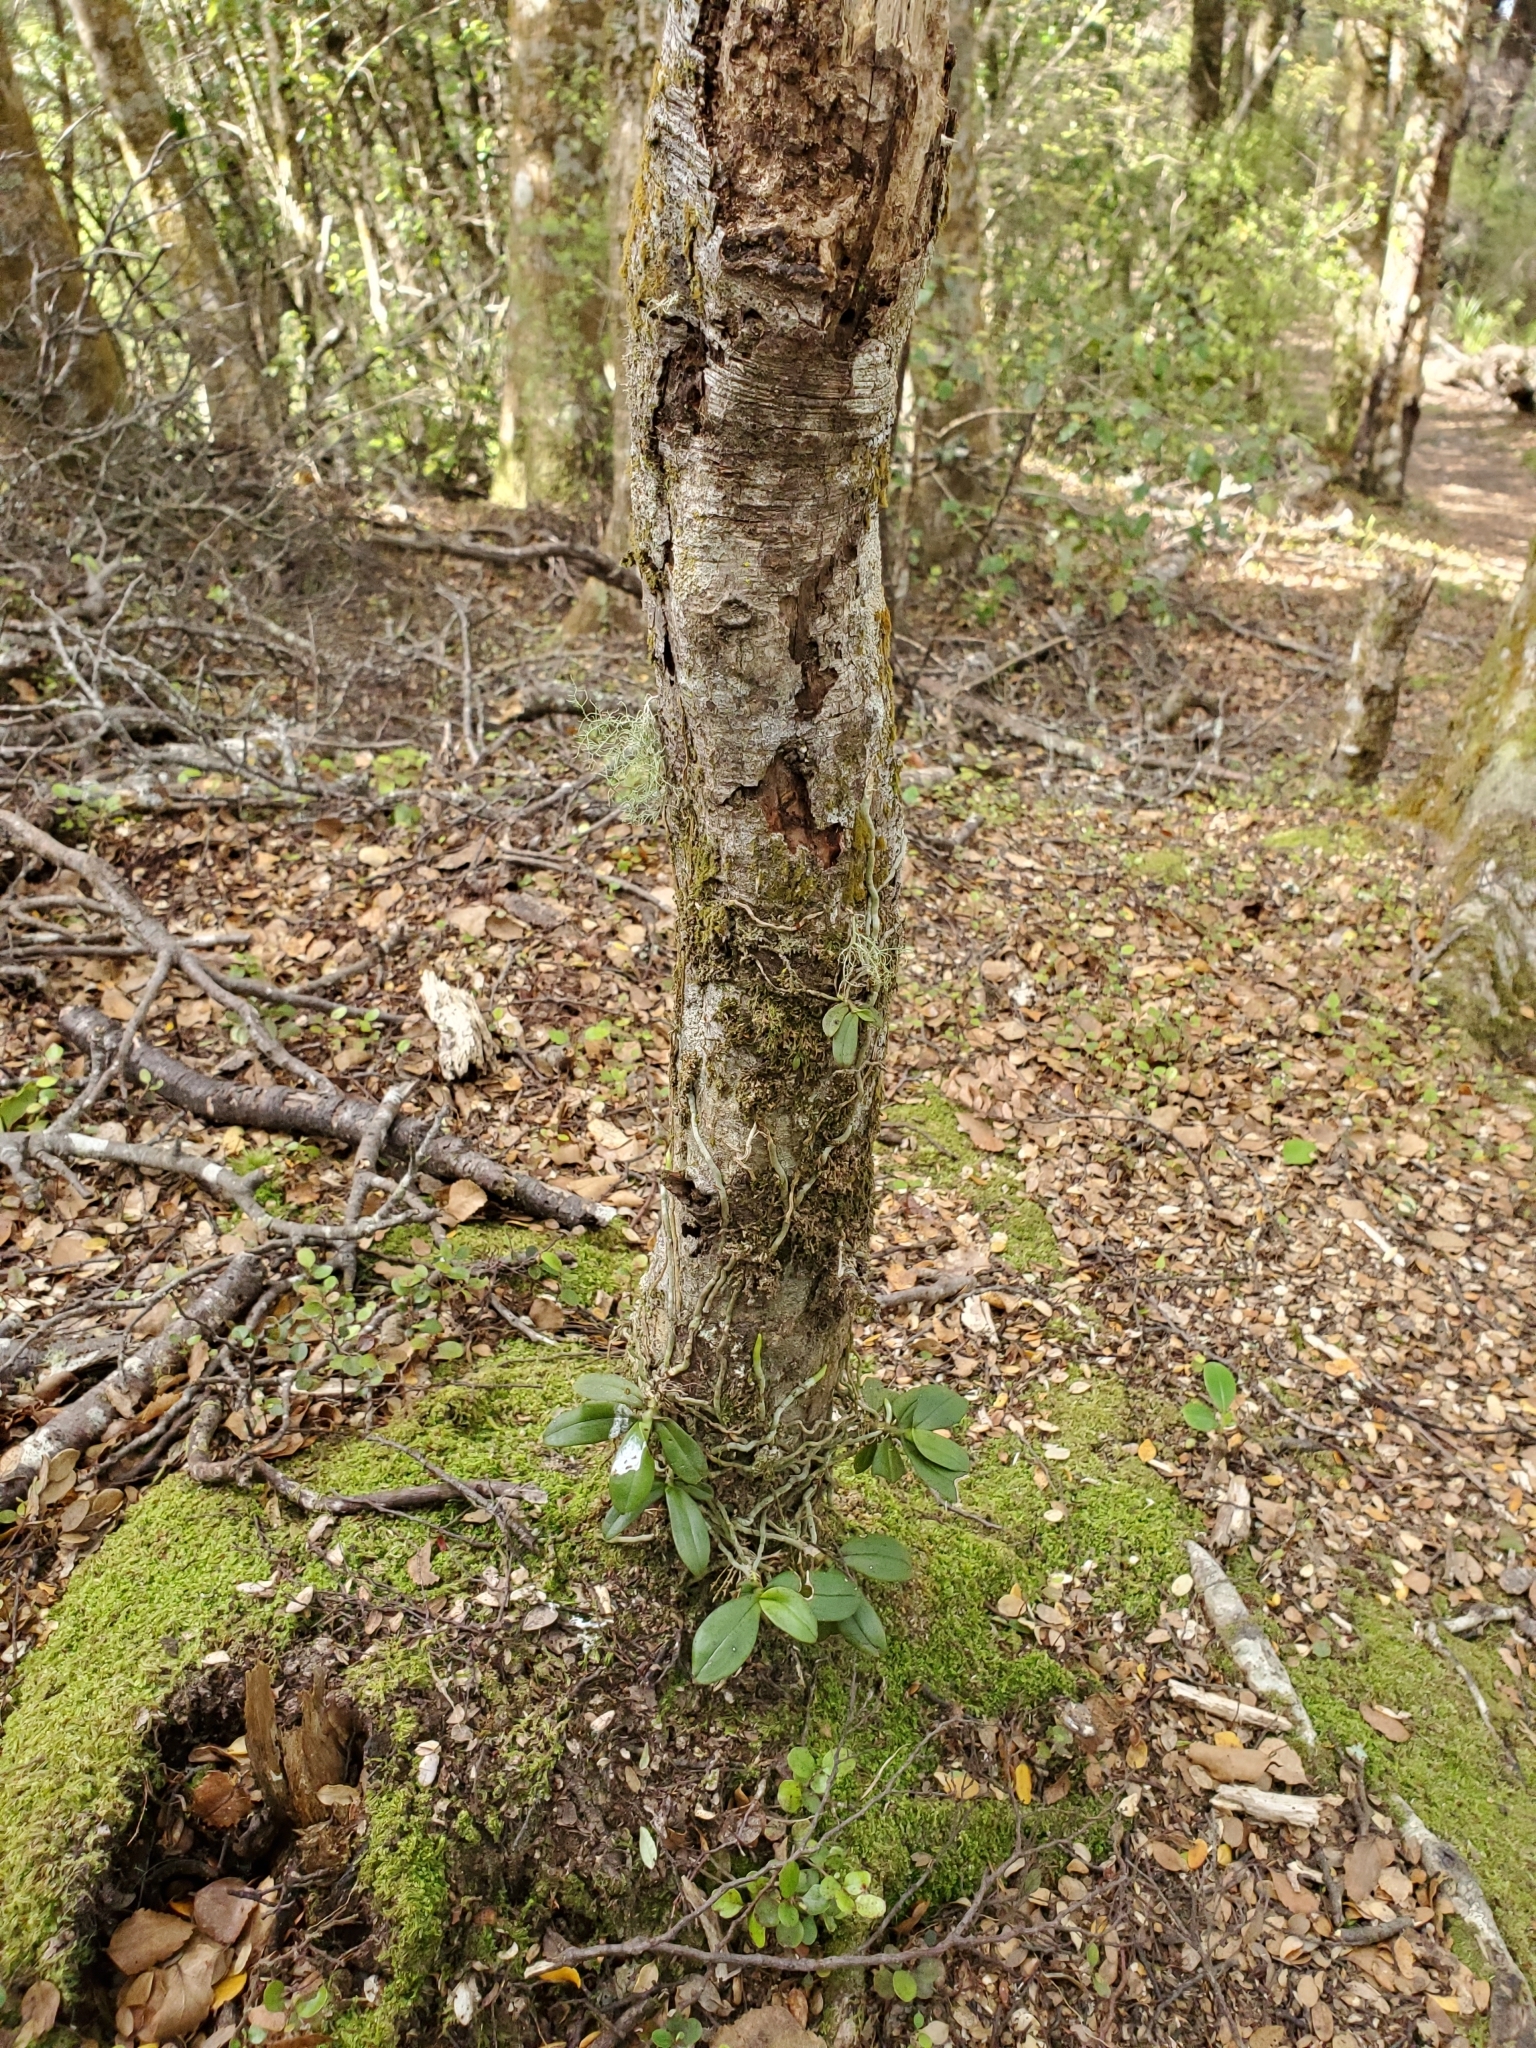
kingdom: Plantae
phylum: Tracheophyta
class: Liliopsida
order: Asparagales
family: Orchidaceae
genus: Drymoanthus
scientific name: Drymoanthus adversus
